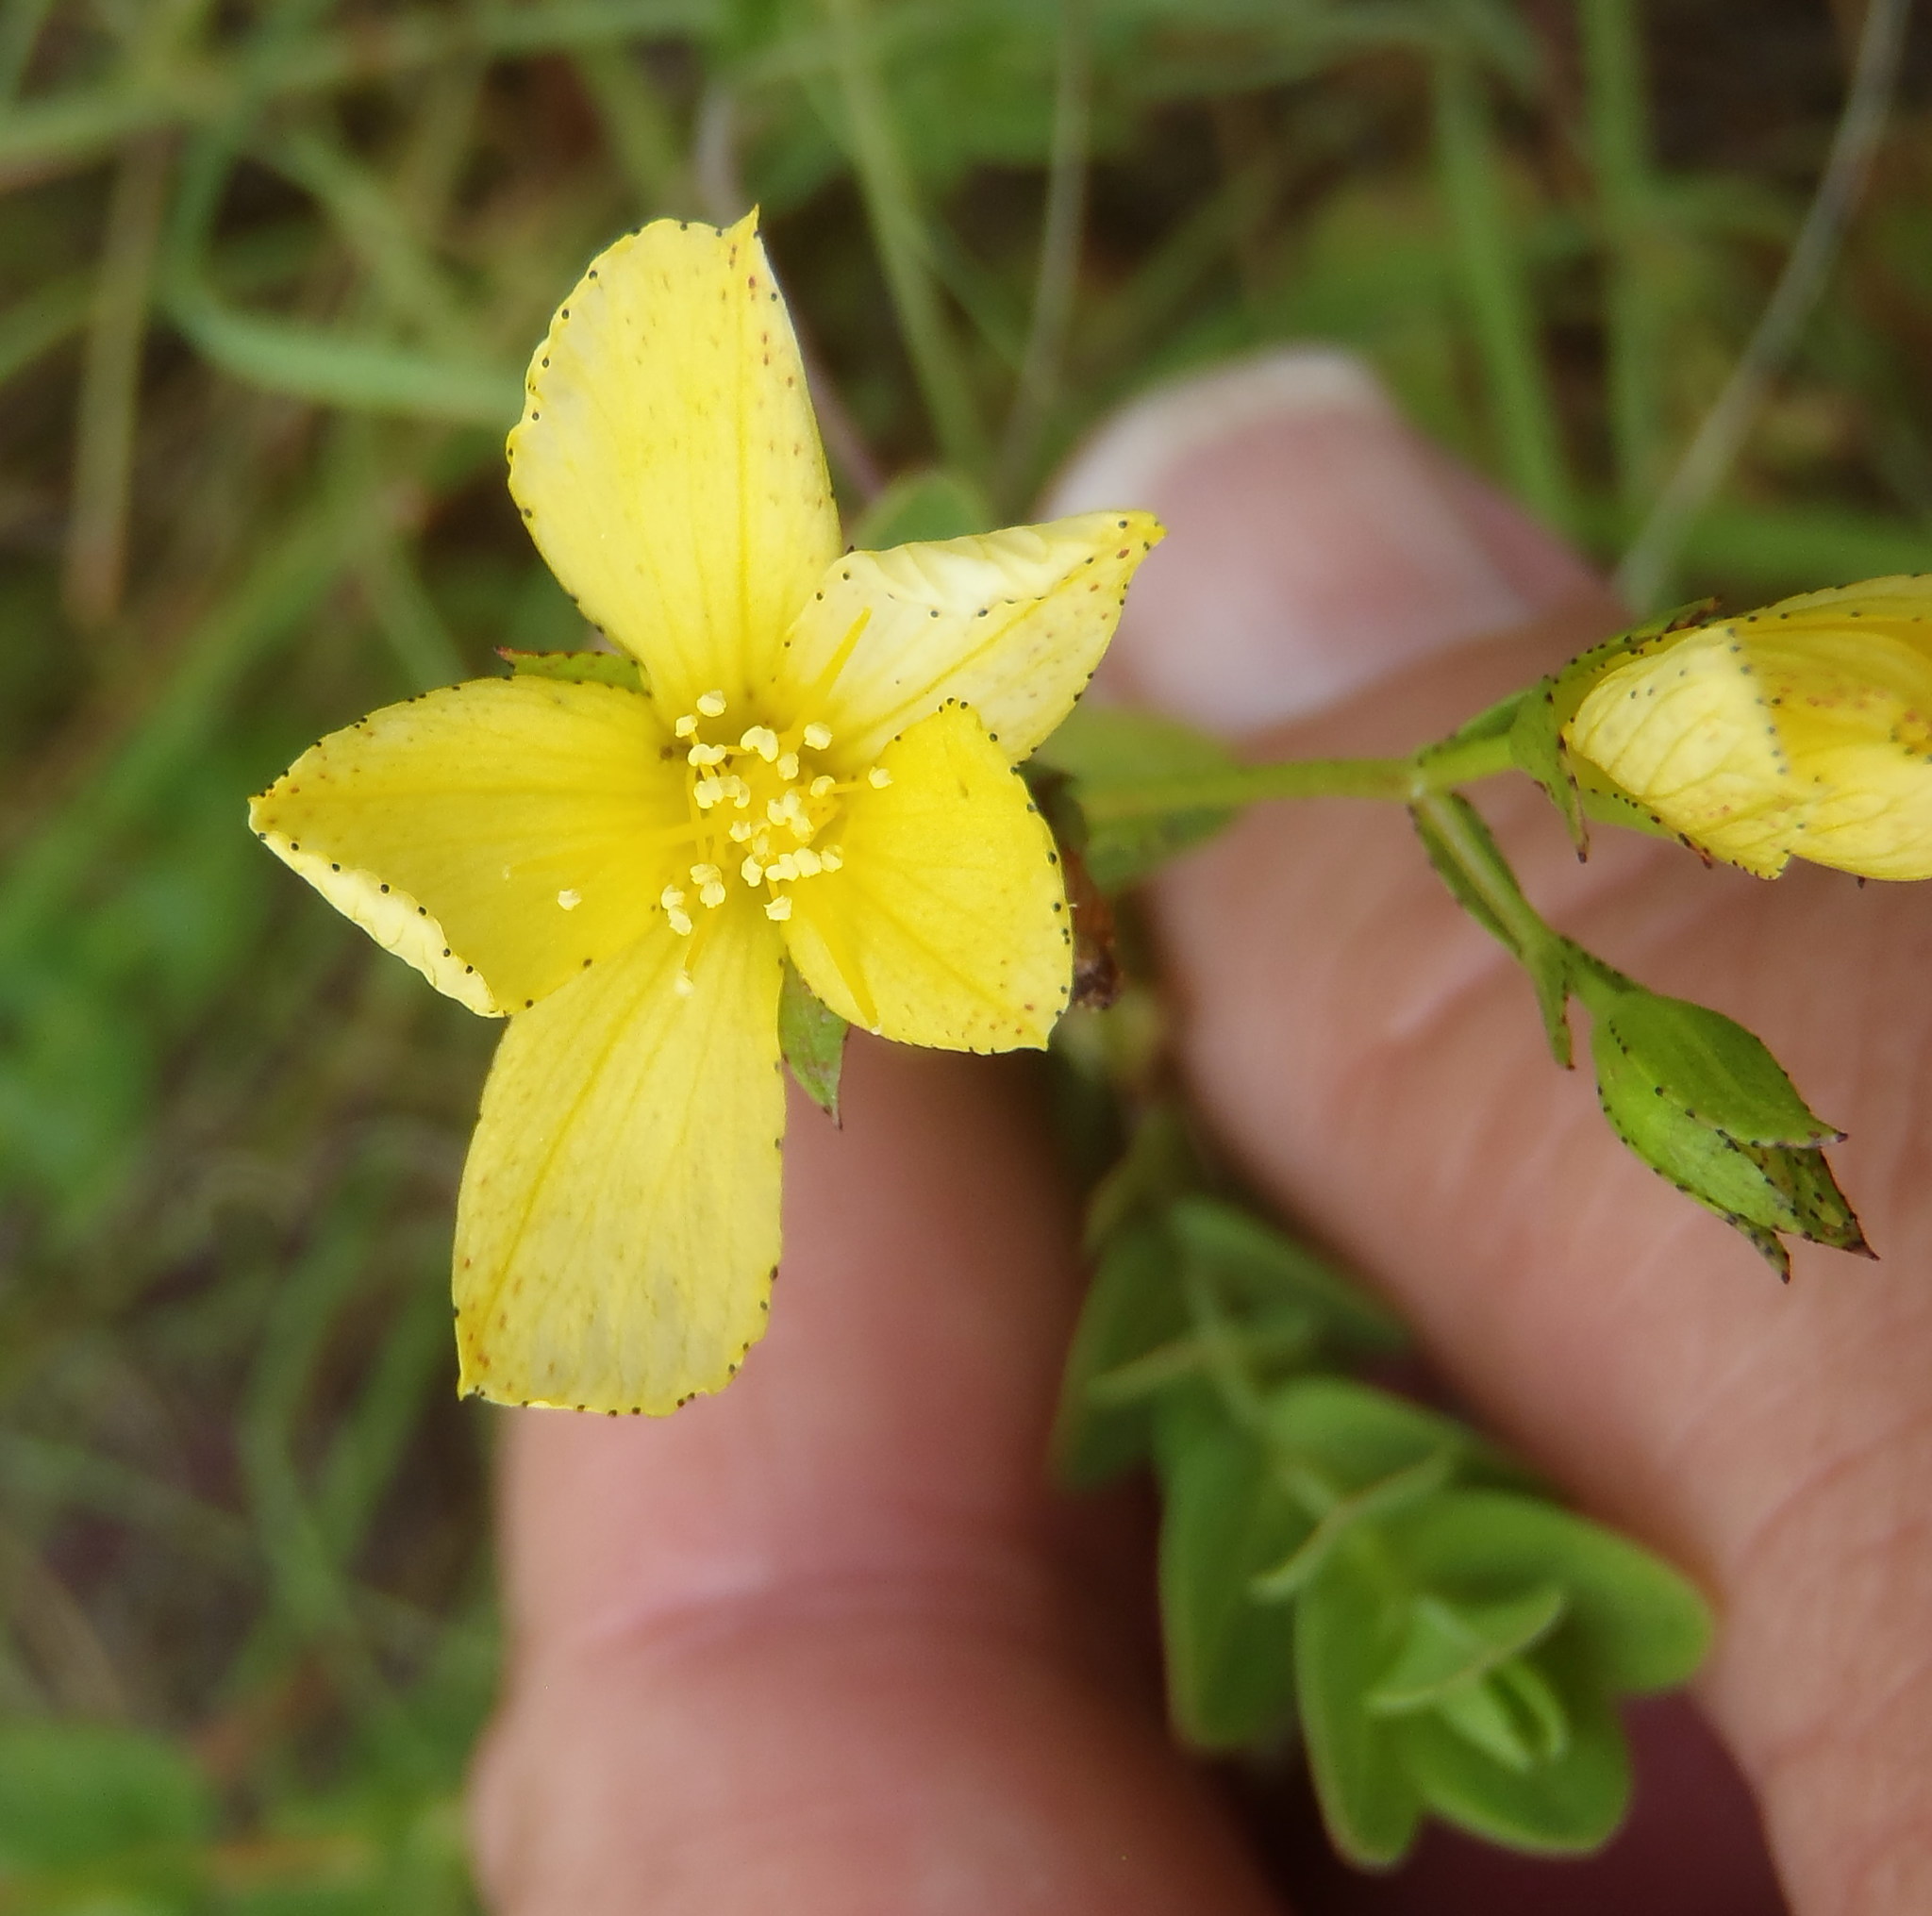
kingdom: Plantae
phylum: Tracheophyta
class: Magnoliopsida
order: Malpighiales
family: Hypericaceae
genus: Hypericum
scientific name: Hypericum aethiopicum
